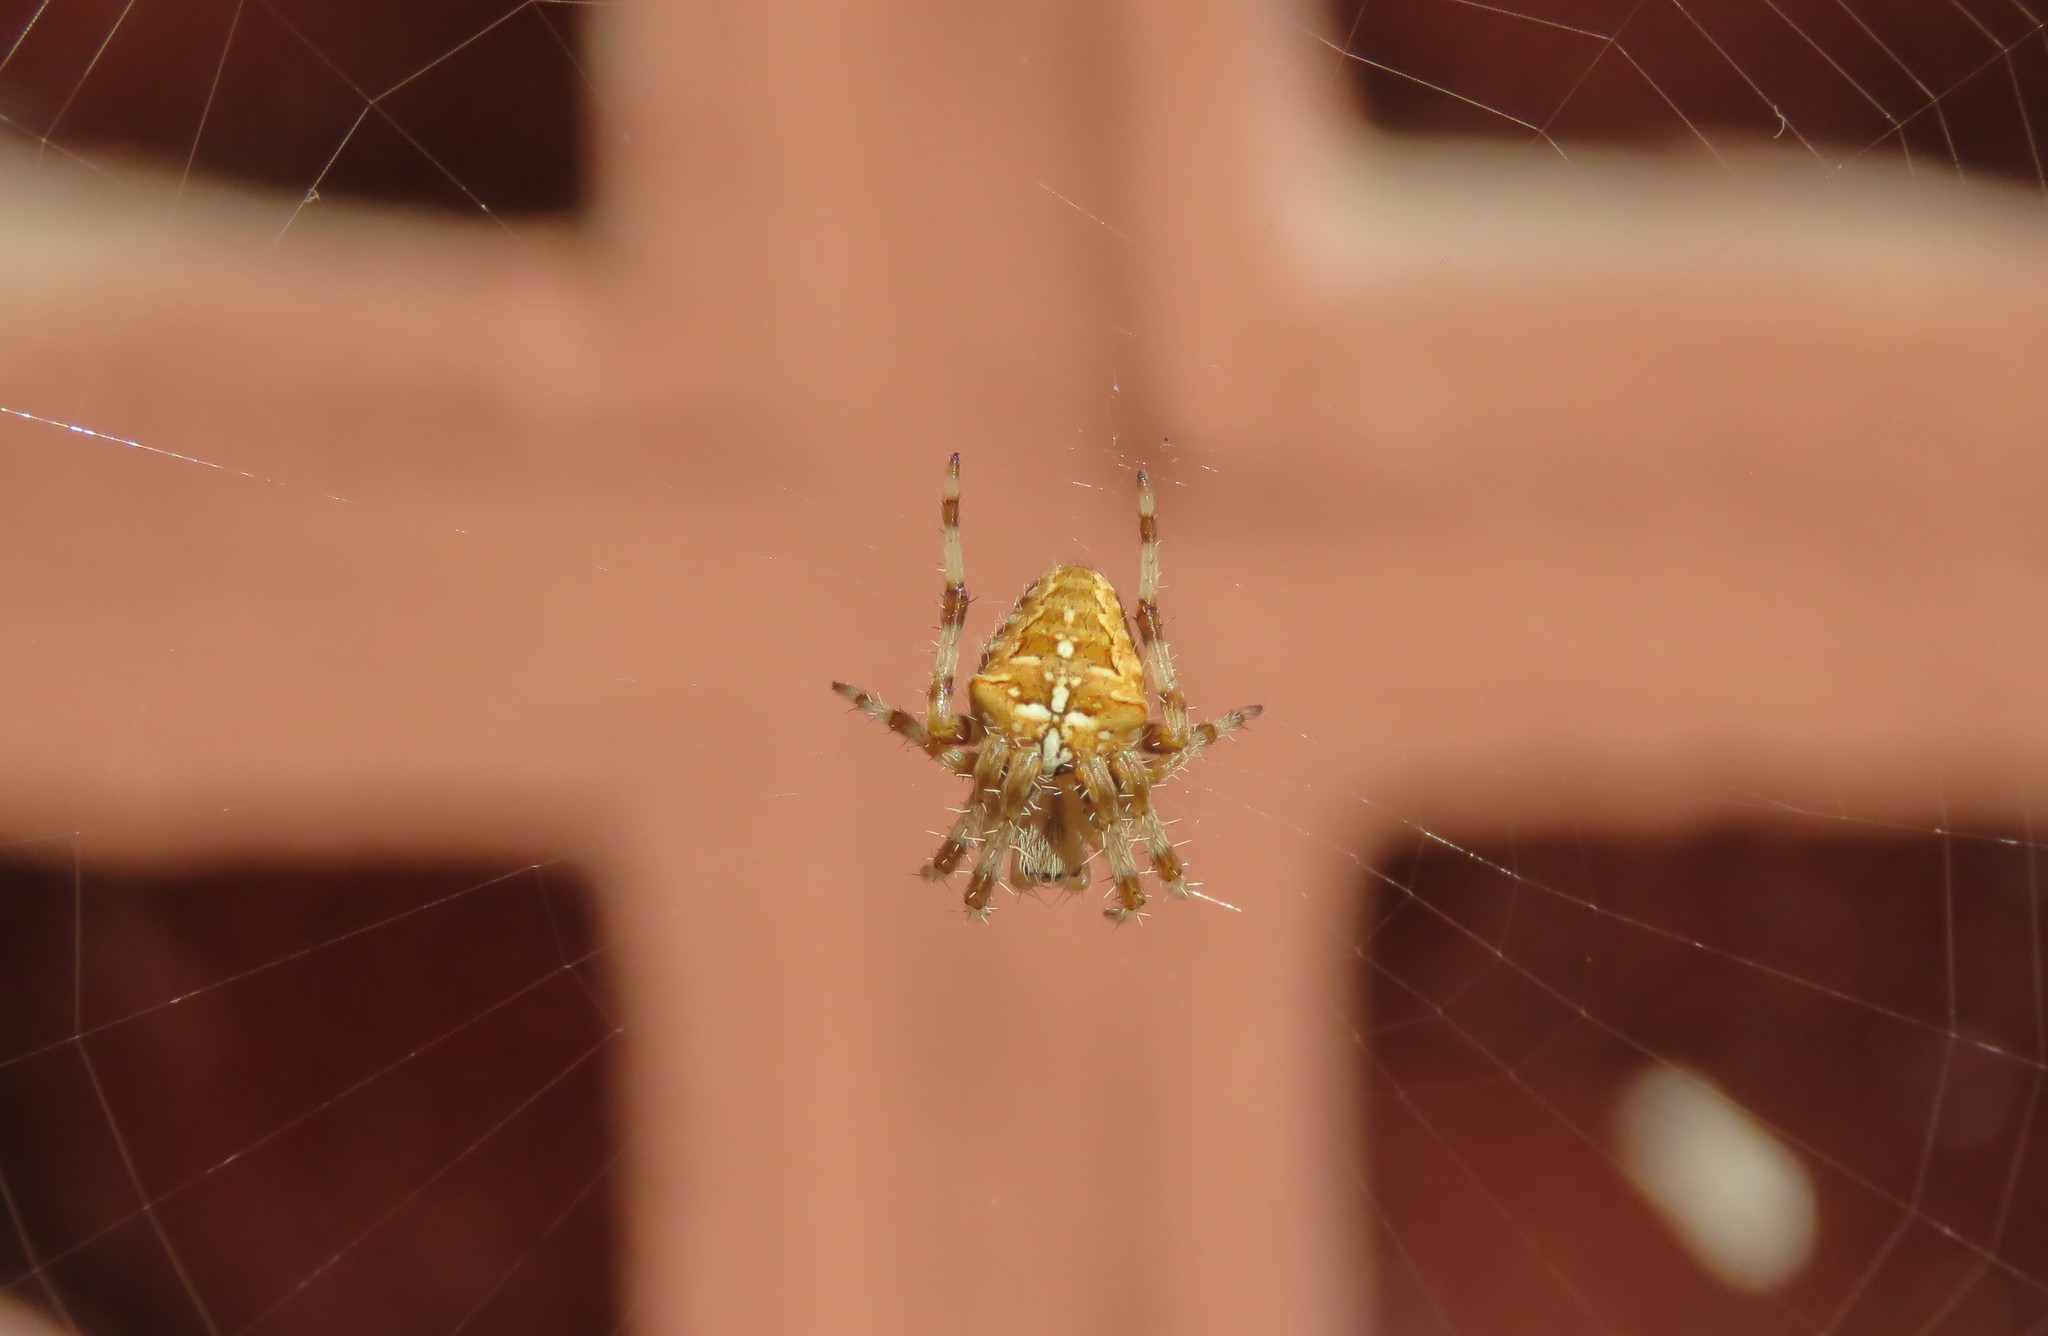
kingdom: Animalia
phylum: Arthropoda
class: Arachnida
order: Araneae
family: Araneidae
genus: Araneus
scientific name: Araneus diadematus
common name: Cross orbweaver
